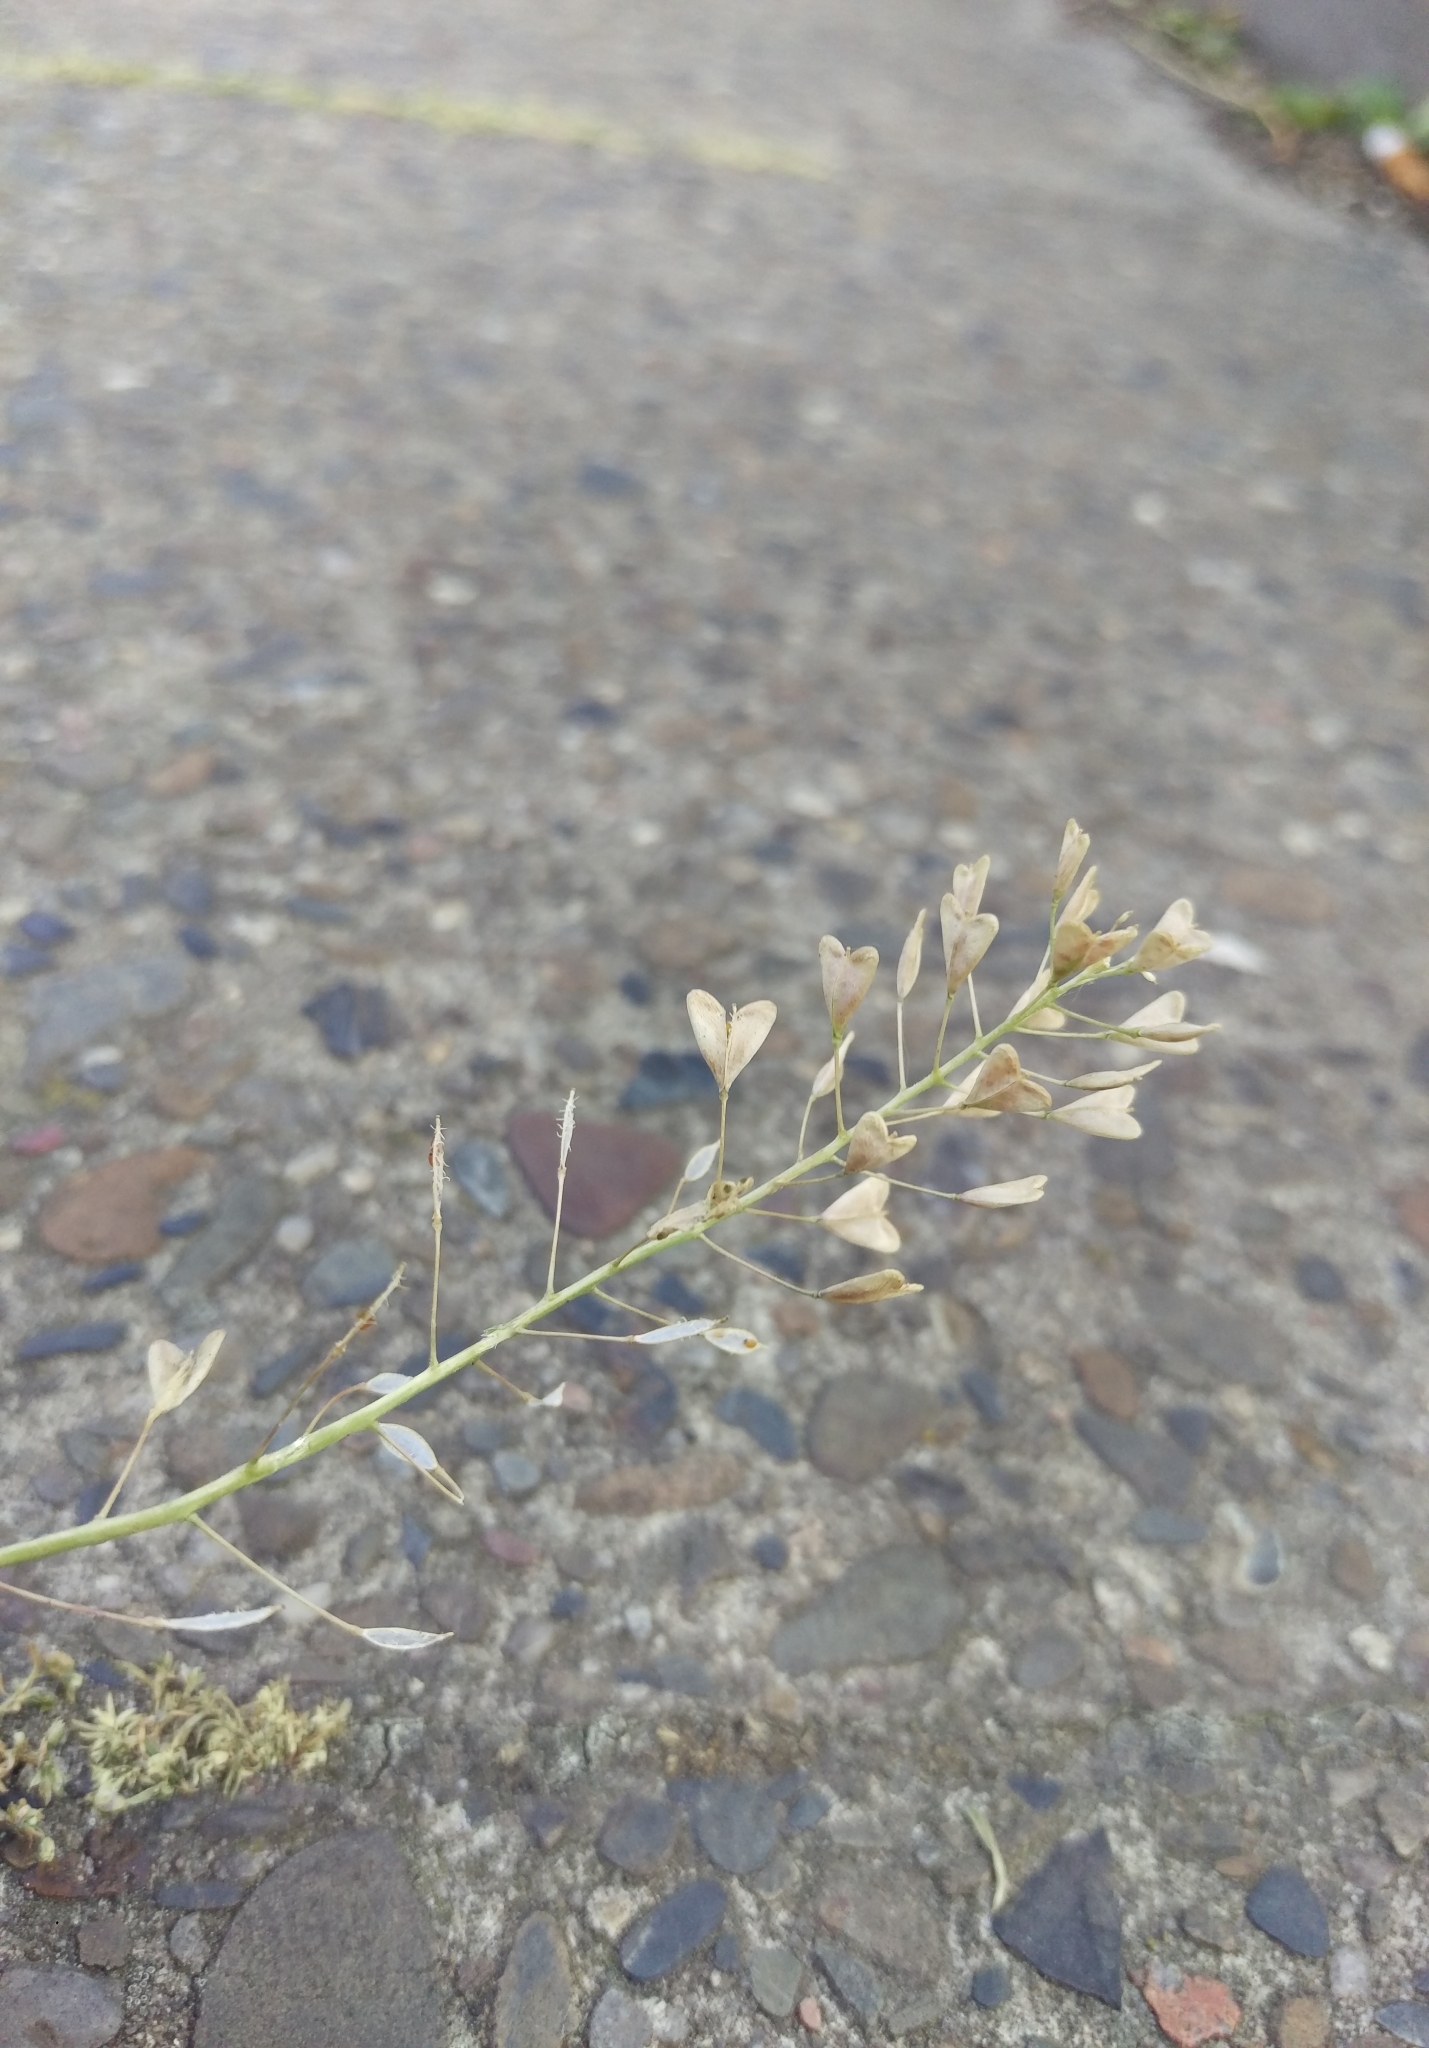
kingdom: Plantae
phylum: Tracheophyta
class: Magnoliopsida
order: Brassicales
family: Brassicaceae
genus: Capsella
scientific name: Capsella bursa-pastoris
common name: Shepherd's purse
